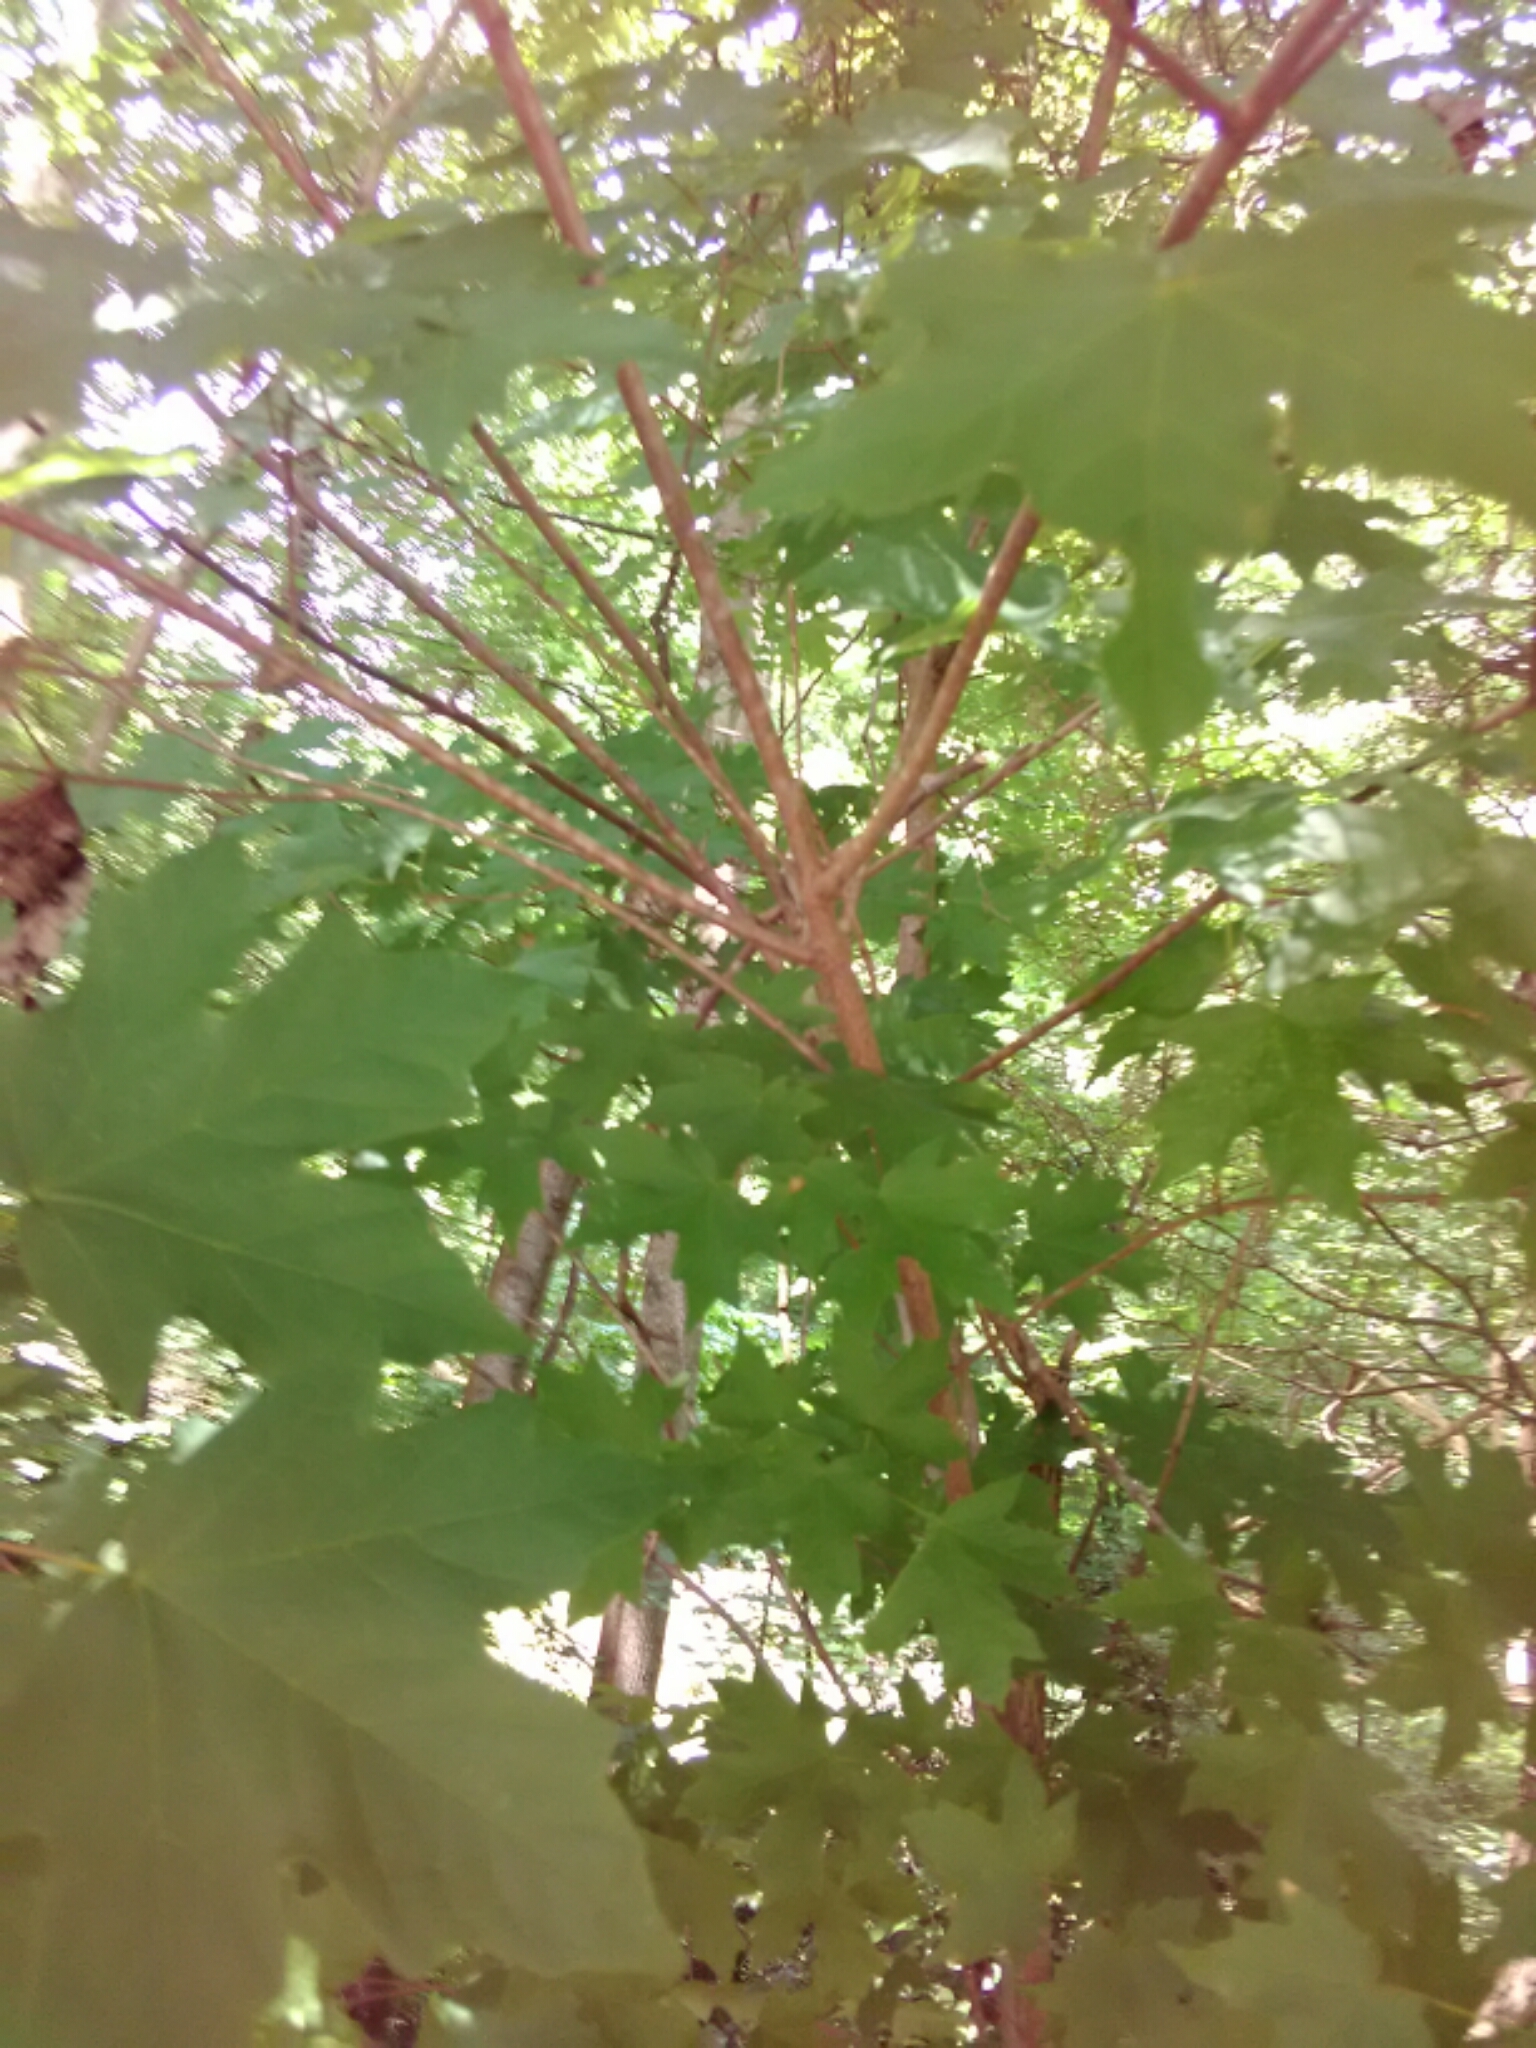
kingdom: Plantae
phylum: Tracheophyta
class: Magnoliopsida
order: Sapindales
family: Sapindaceae
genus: Acer
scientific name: Acer floridanum
